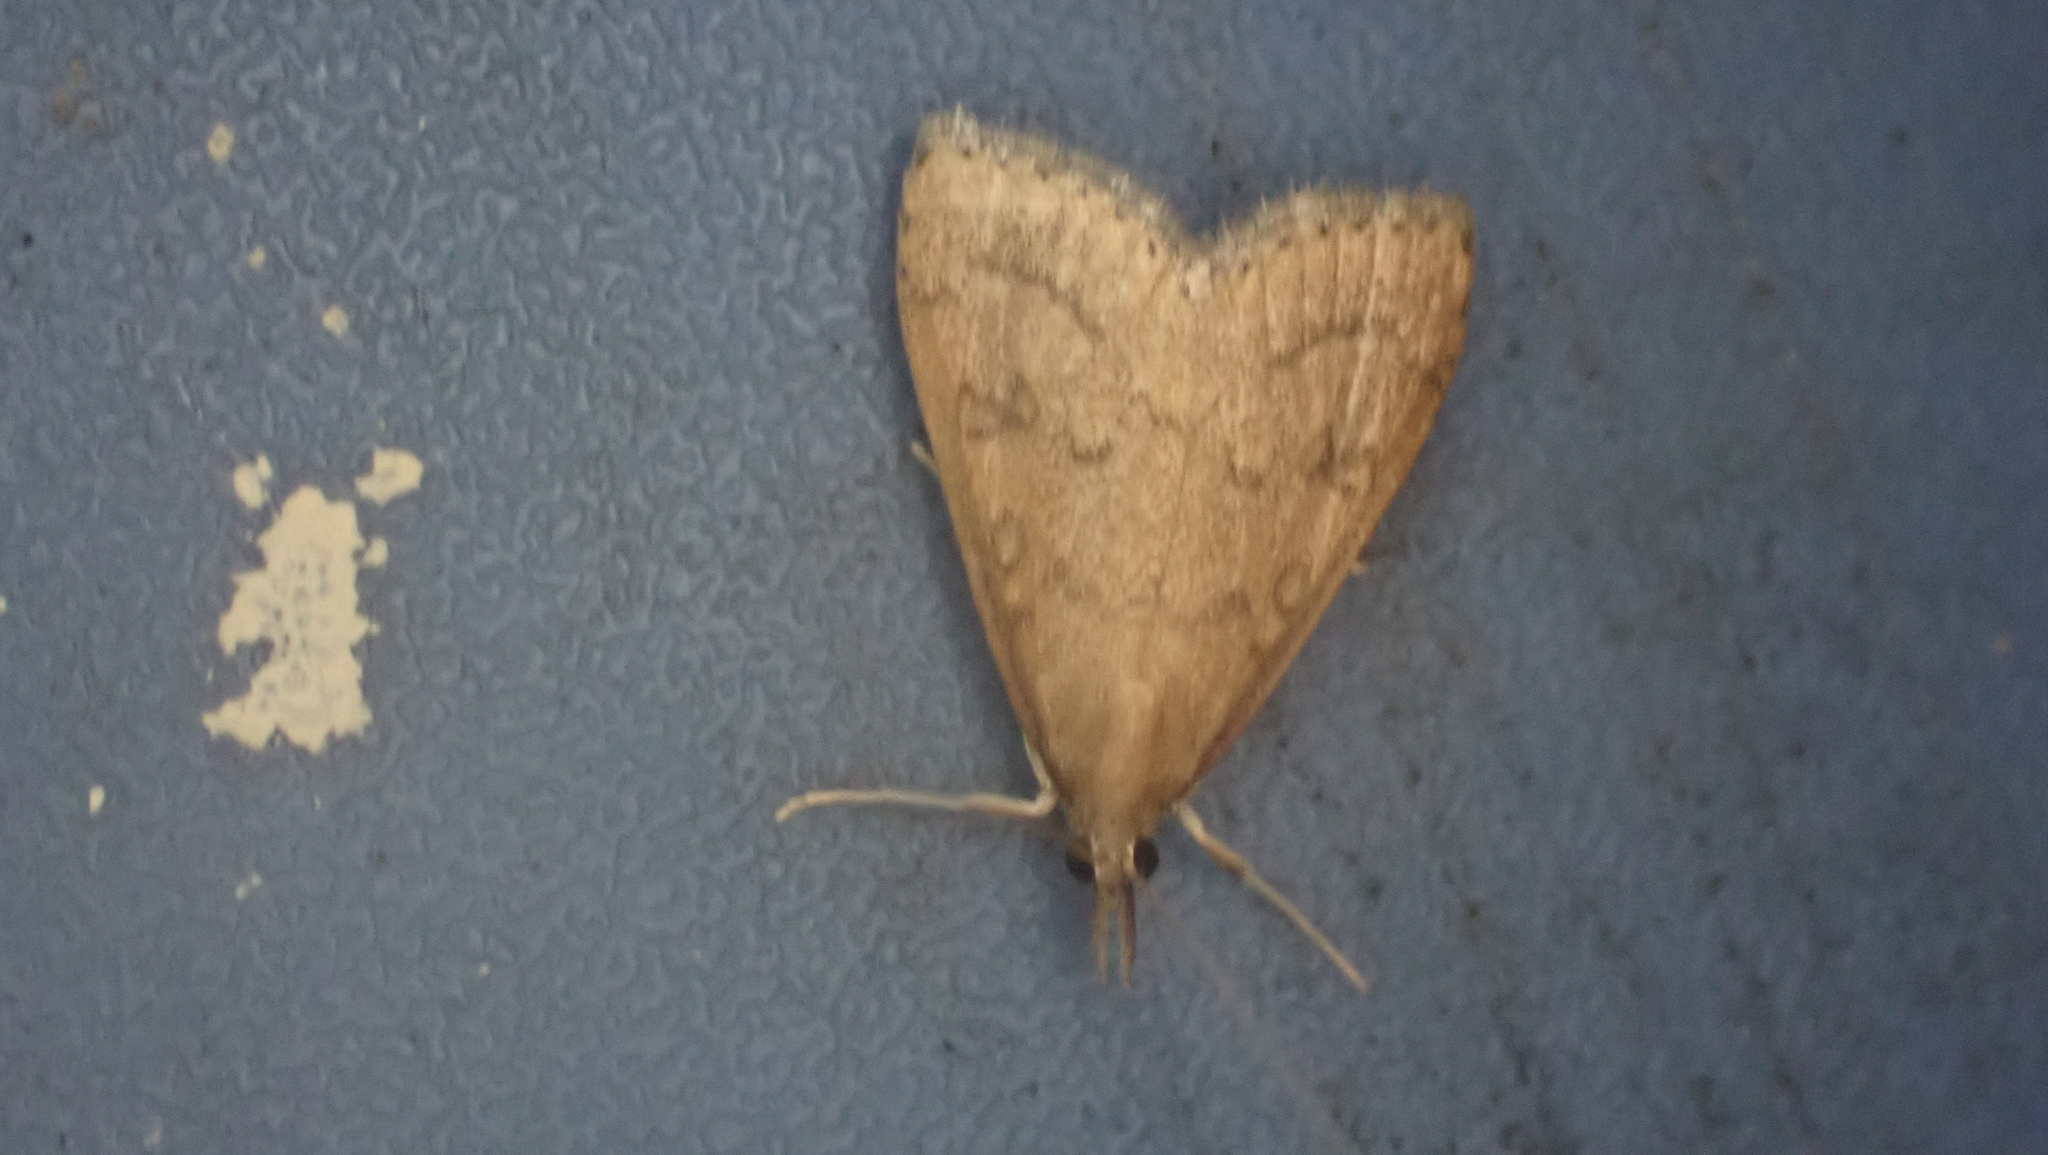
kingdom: Animalia
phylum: Arthropoda
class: Insecta
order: Lepidoptera
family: Crambidae
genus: Udea
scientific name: Udea rubigalis
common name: Celery leaftier moth
